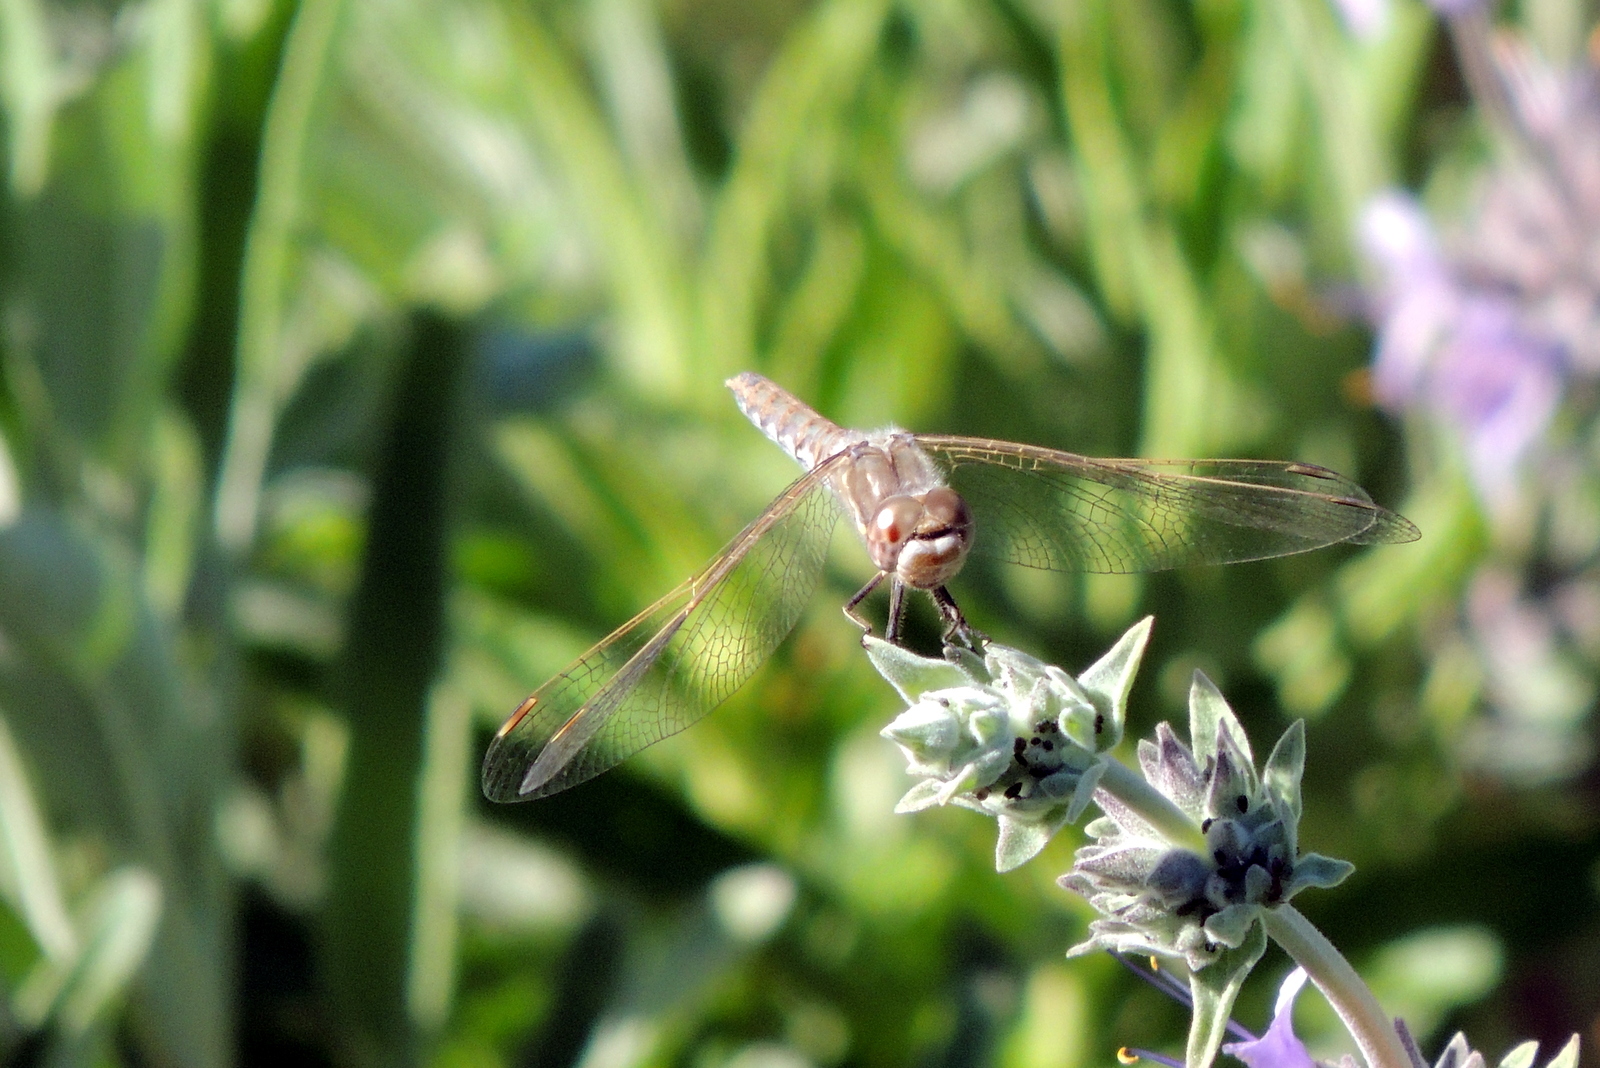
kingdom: Animalia
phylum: Arthropoda
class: Insecta
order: Odonata
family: Libellulidae
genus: Sympetrum
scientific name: Sympetrum corruptum
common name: Variegated meadowhawk
